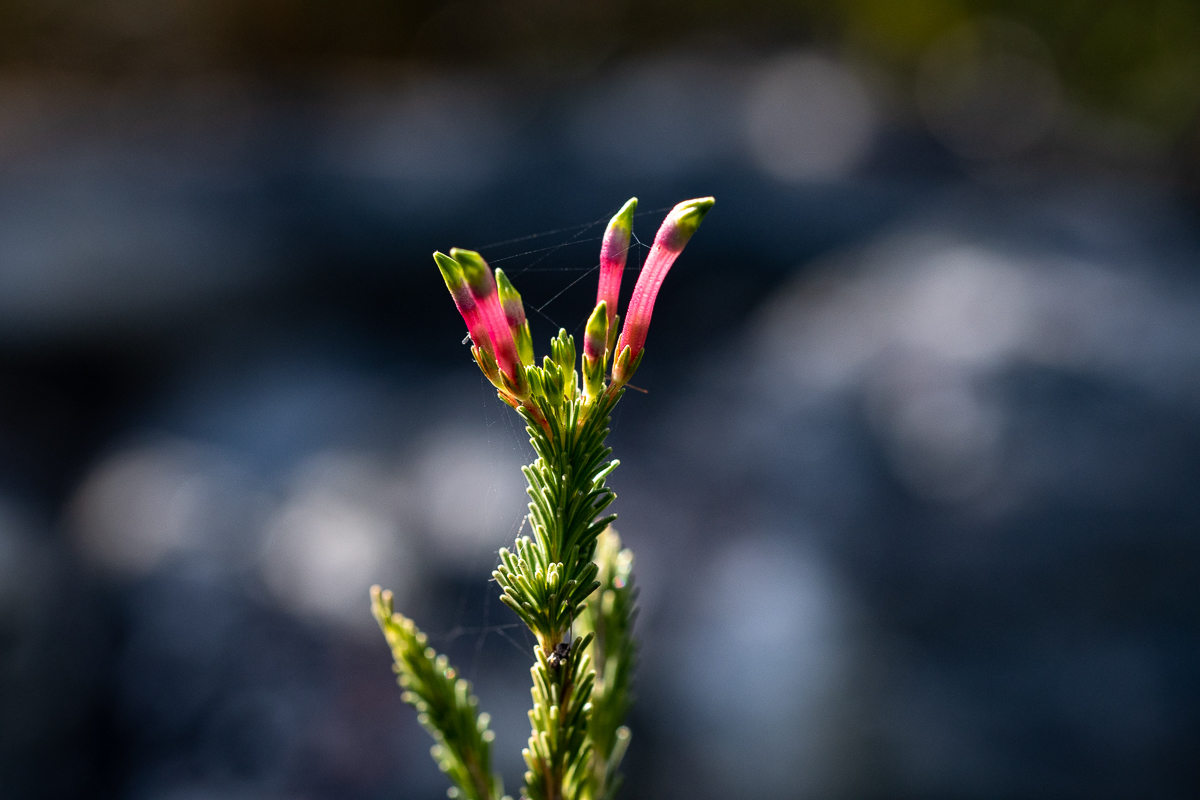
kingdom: Plantae
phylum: Tracheophyta
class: Magnoliopsida
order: Ericales
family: Ericaceae
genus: Erica
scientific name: Erica fascicularis
